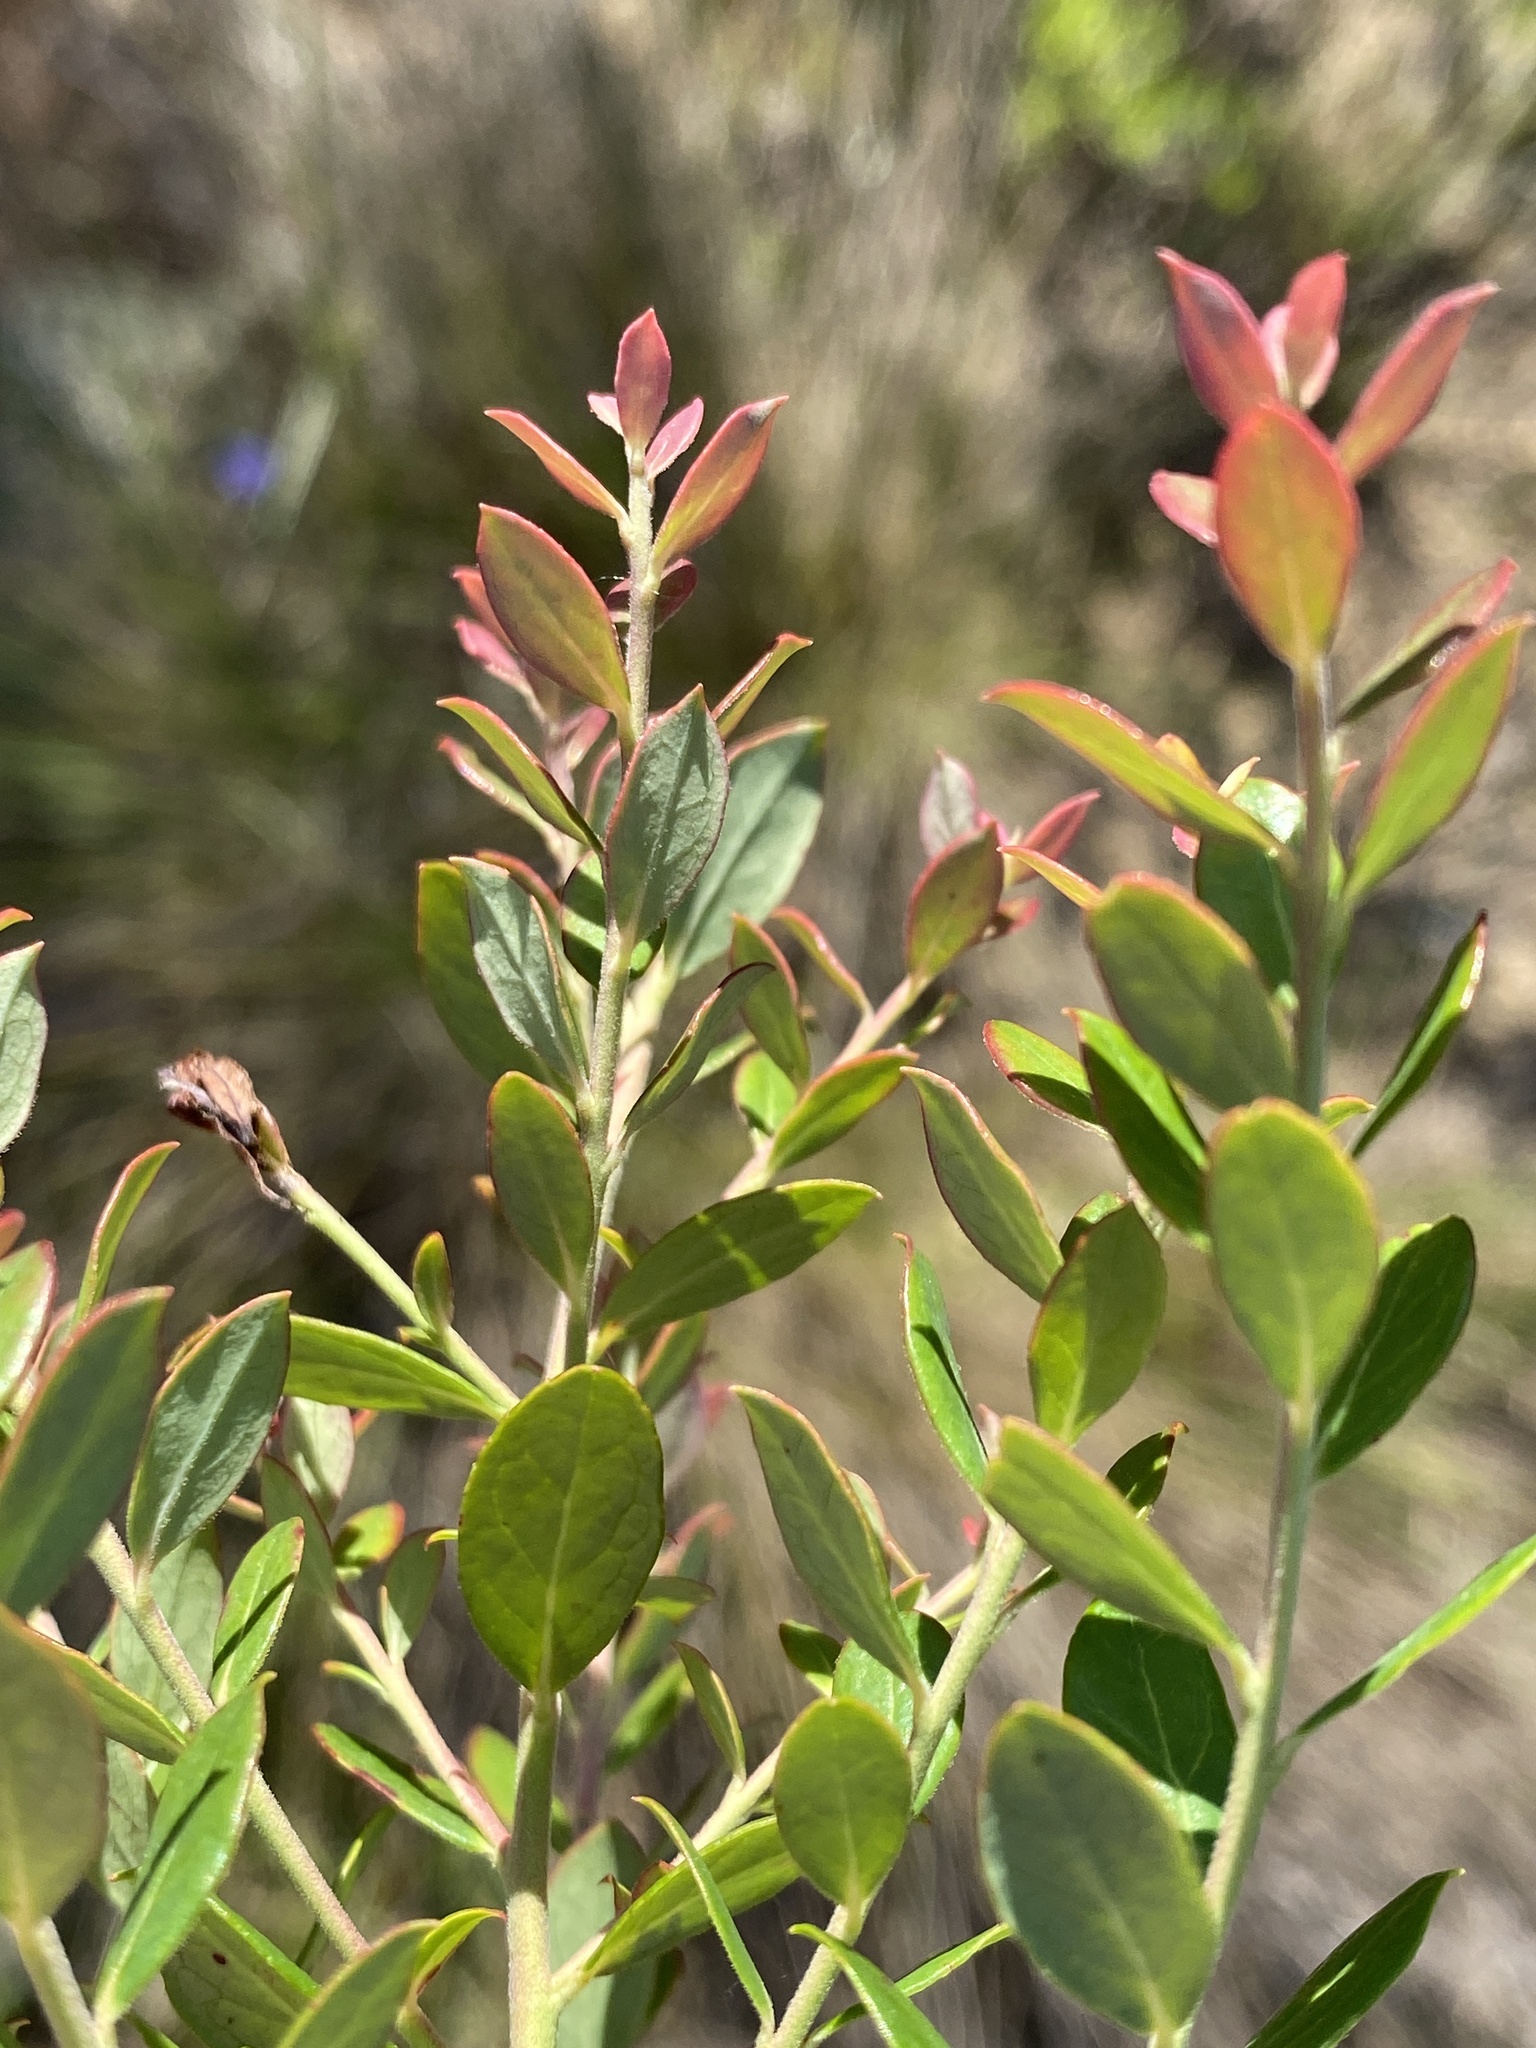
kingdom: Plantae
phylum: Tracheophyta
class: Magnoliopsida
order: Ericales
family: Ericaceae
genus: Vaccinium
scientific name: Vaccinium myrsinites
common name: Evergreen blueberry
